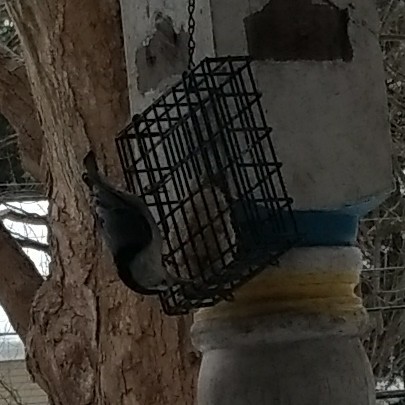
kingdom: Animalia
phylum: Chordata
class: Aves
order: Passeriformes
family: Sittidae
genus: Sitta
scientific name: Sitta carolinensis
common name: White-breasted nuthatch
